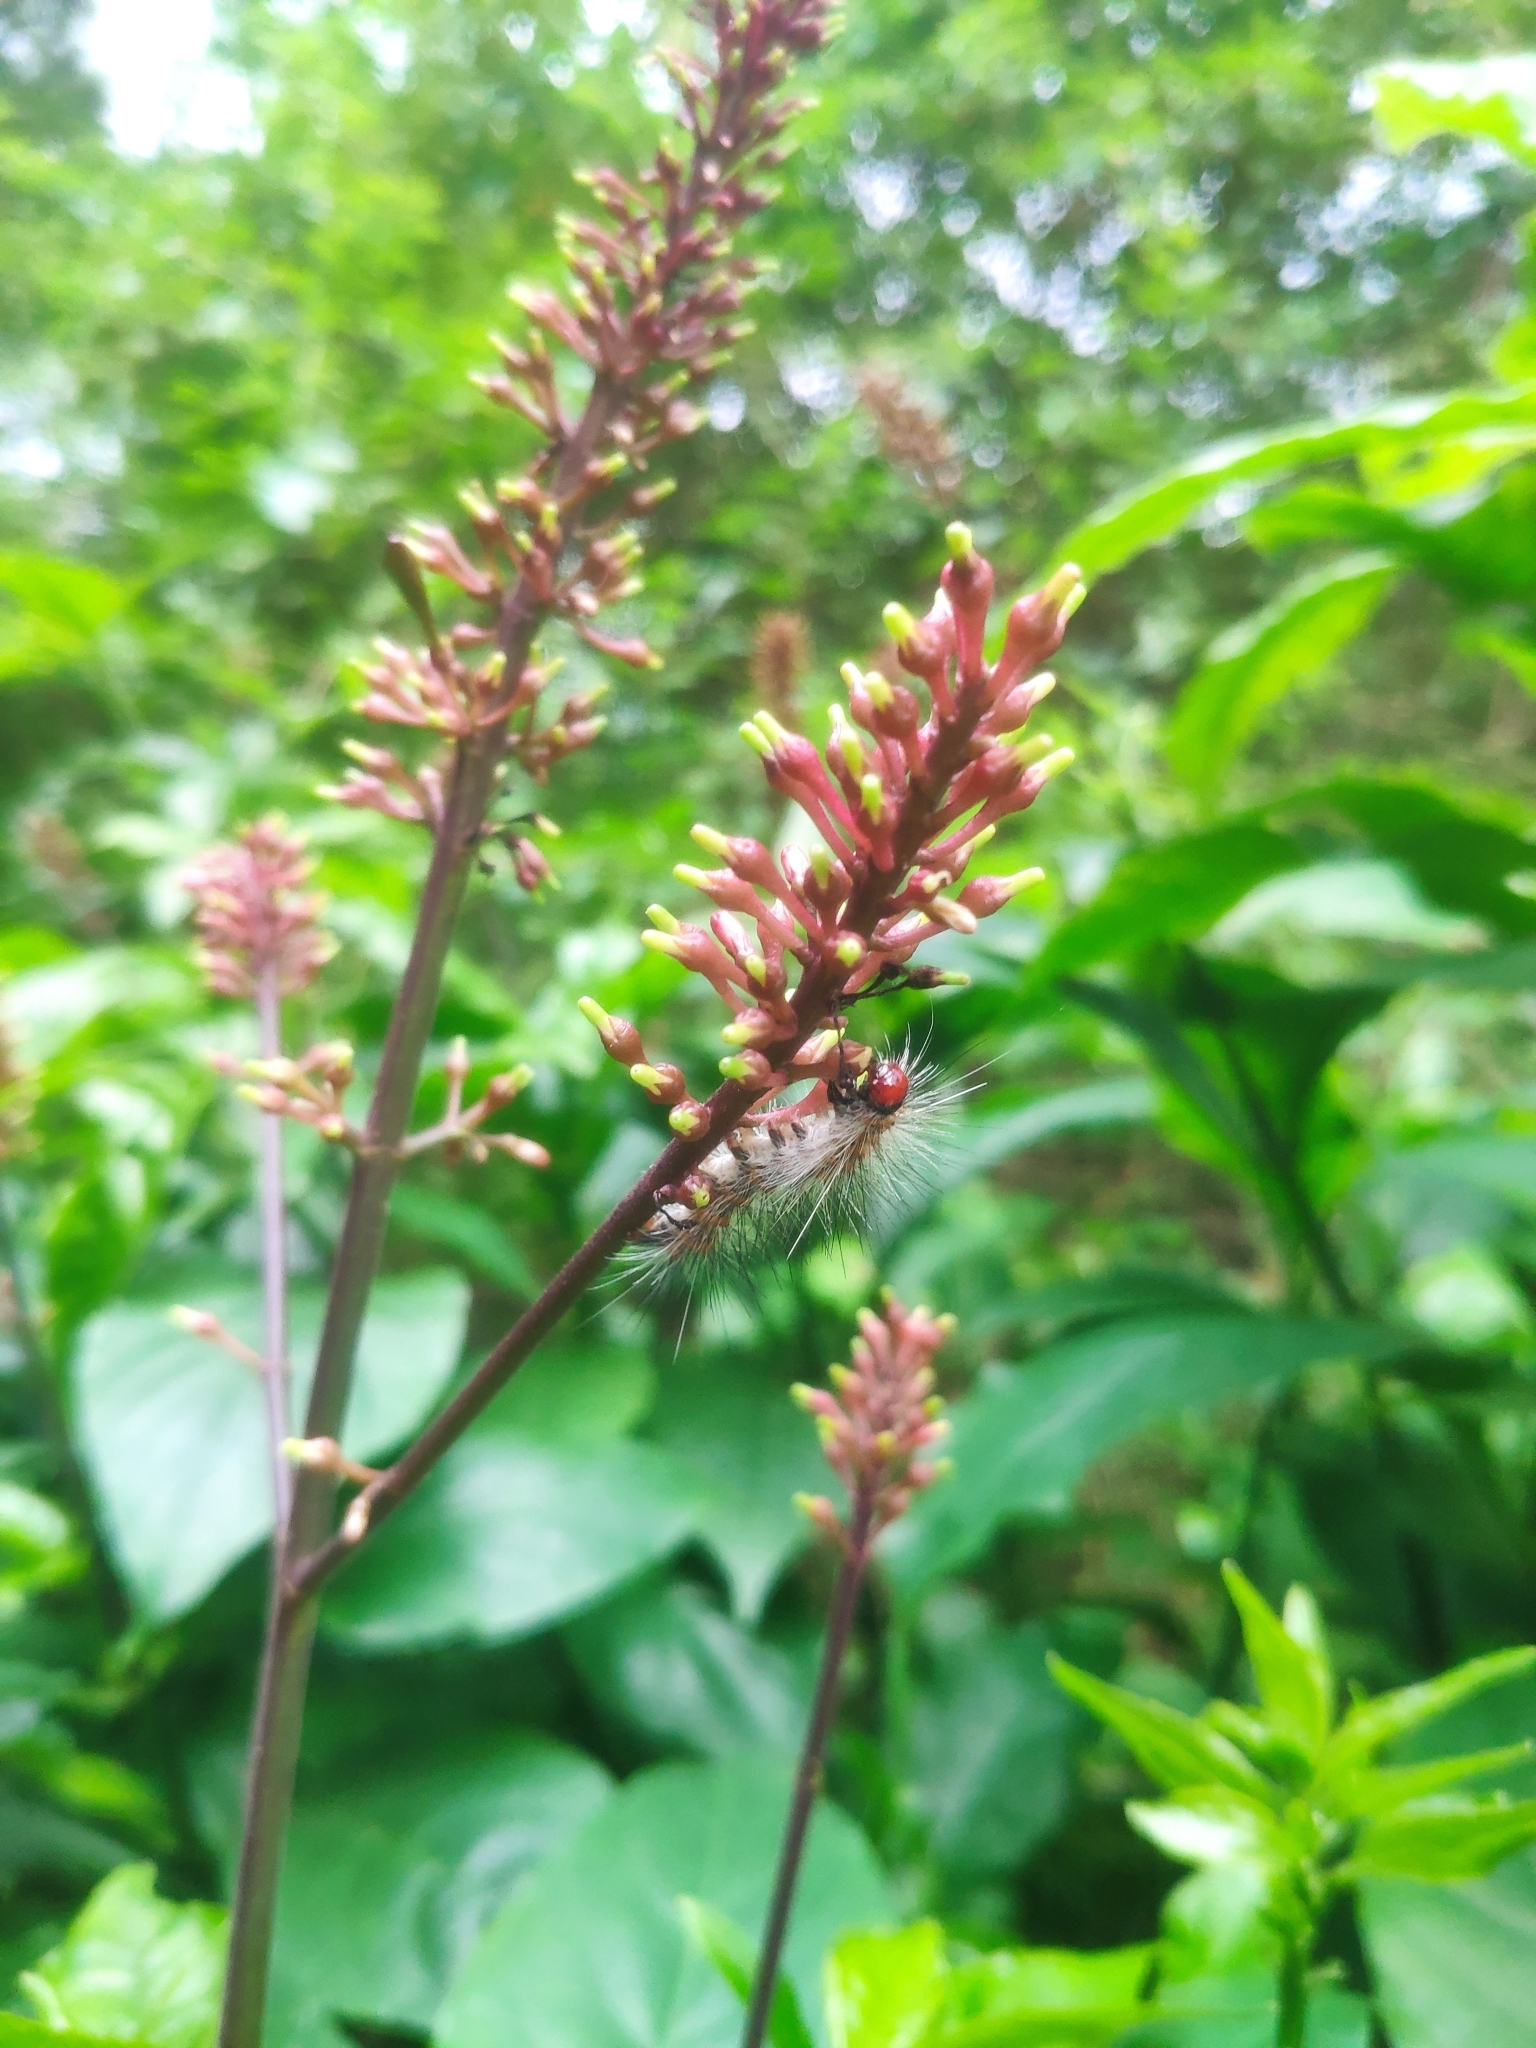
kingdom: Plantae
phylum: Tracheophyta
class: Magnoliopsida
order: Lamiales
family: Acanthaceae
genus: Odontonema
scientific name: Odontonema tubaeforme
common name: Firespike
